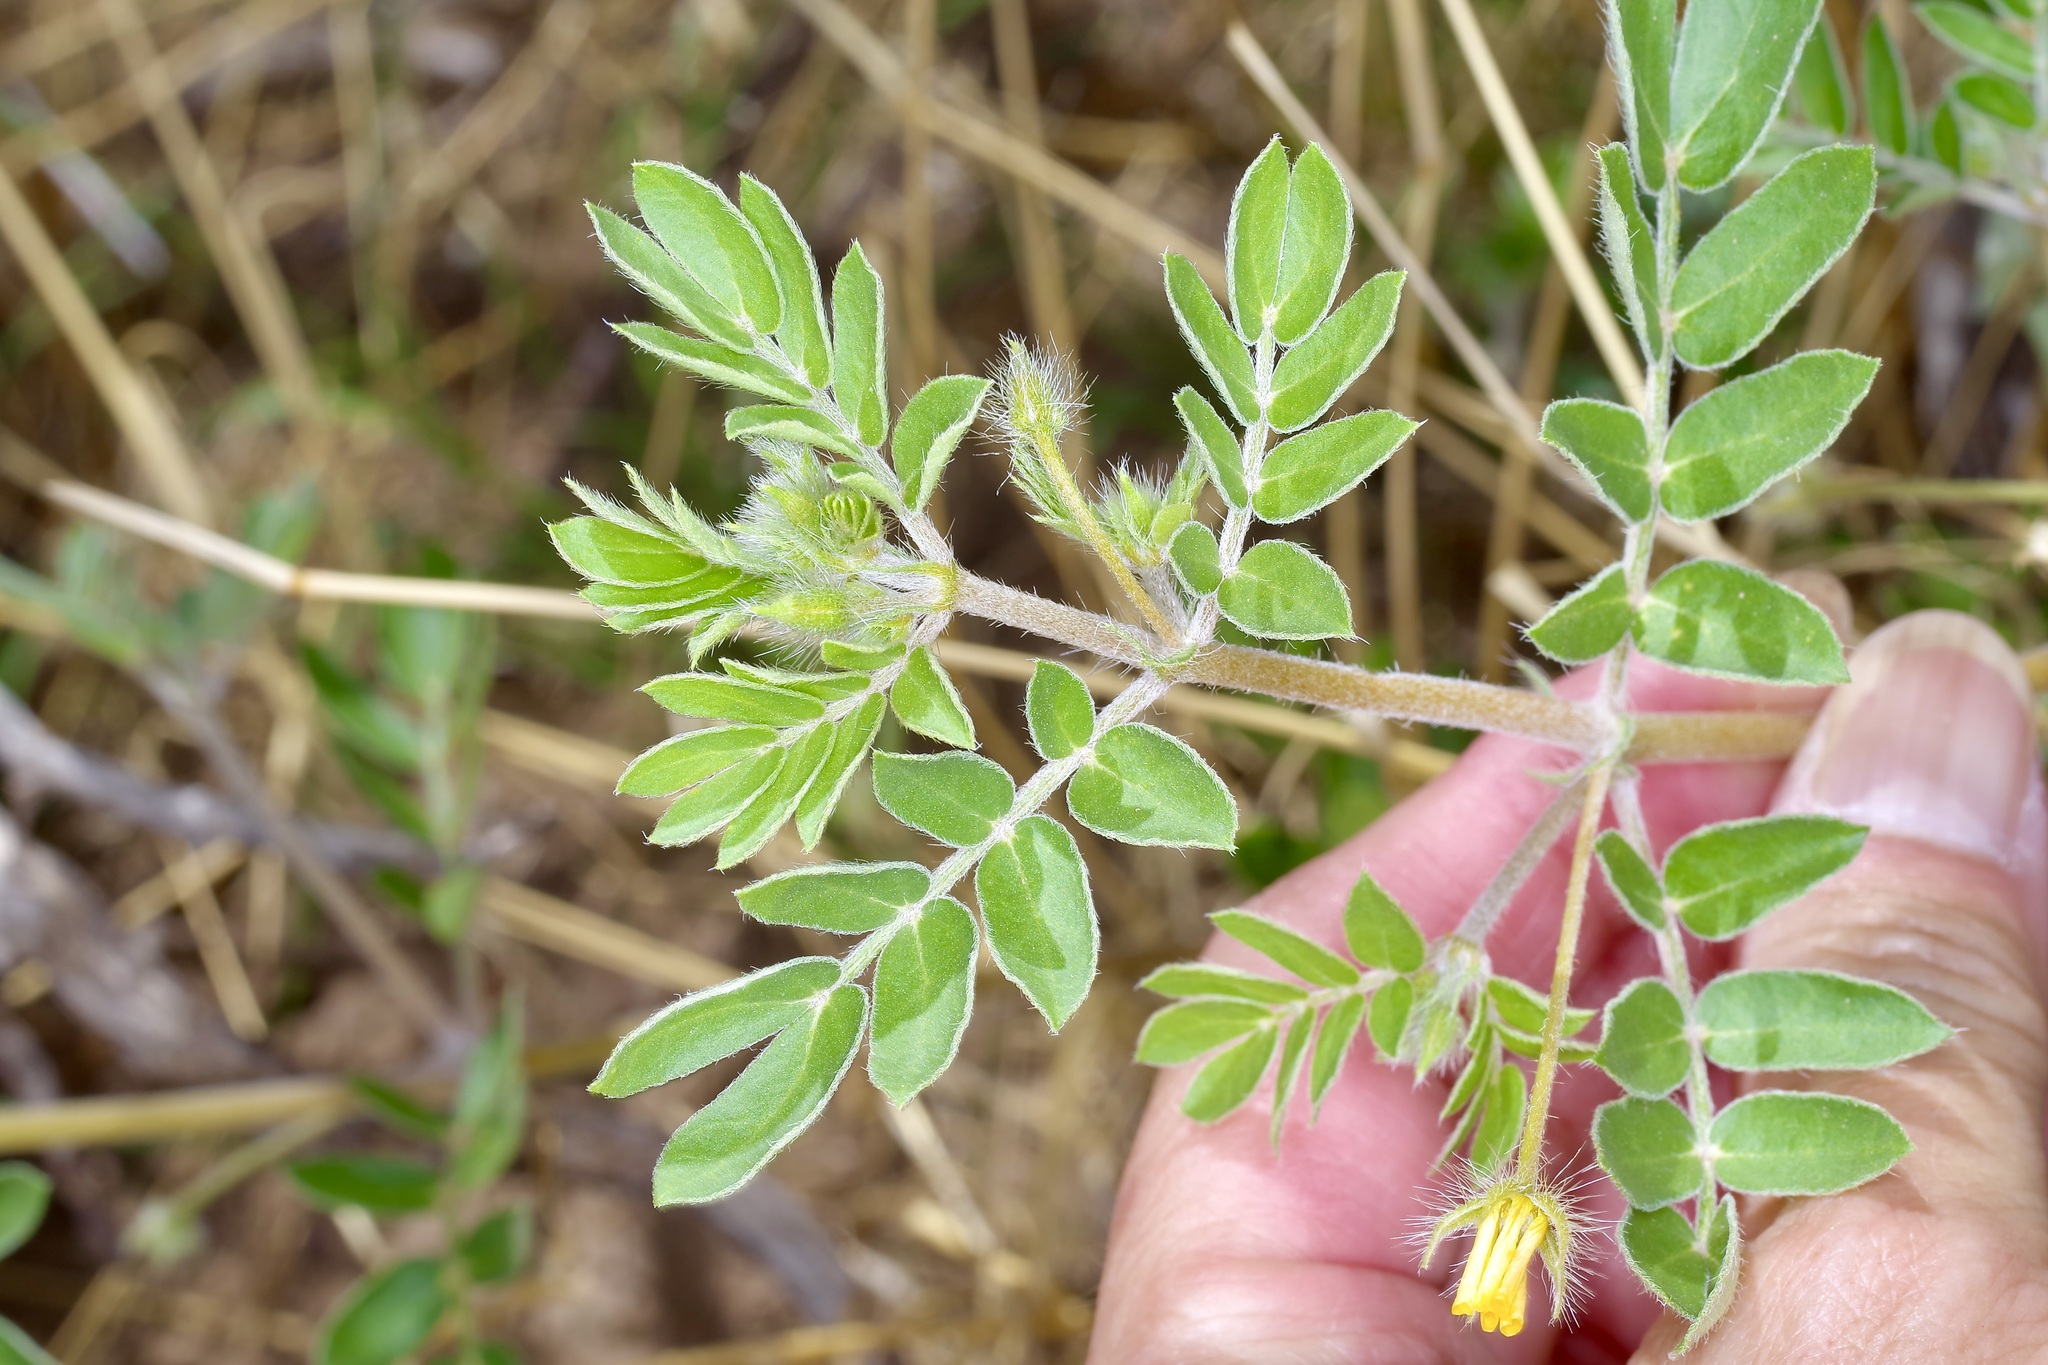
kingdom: Plantae
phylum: Tracheophyta
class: Magnoliopsida
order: Zygophyllales
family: Zygophyllaceae
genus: Kallstroemia
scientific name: Kallstroemia parviflora
